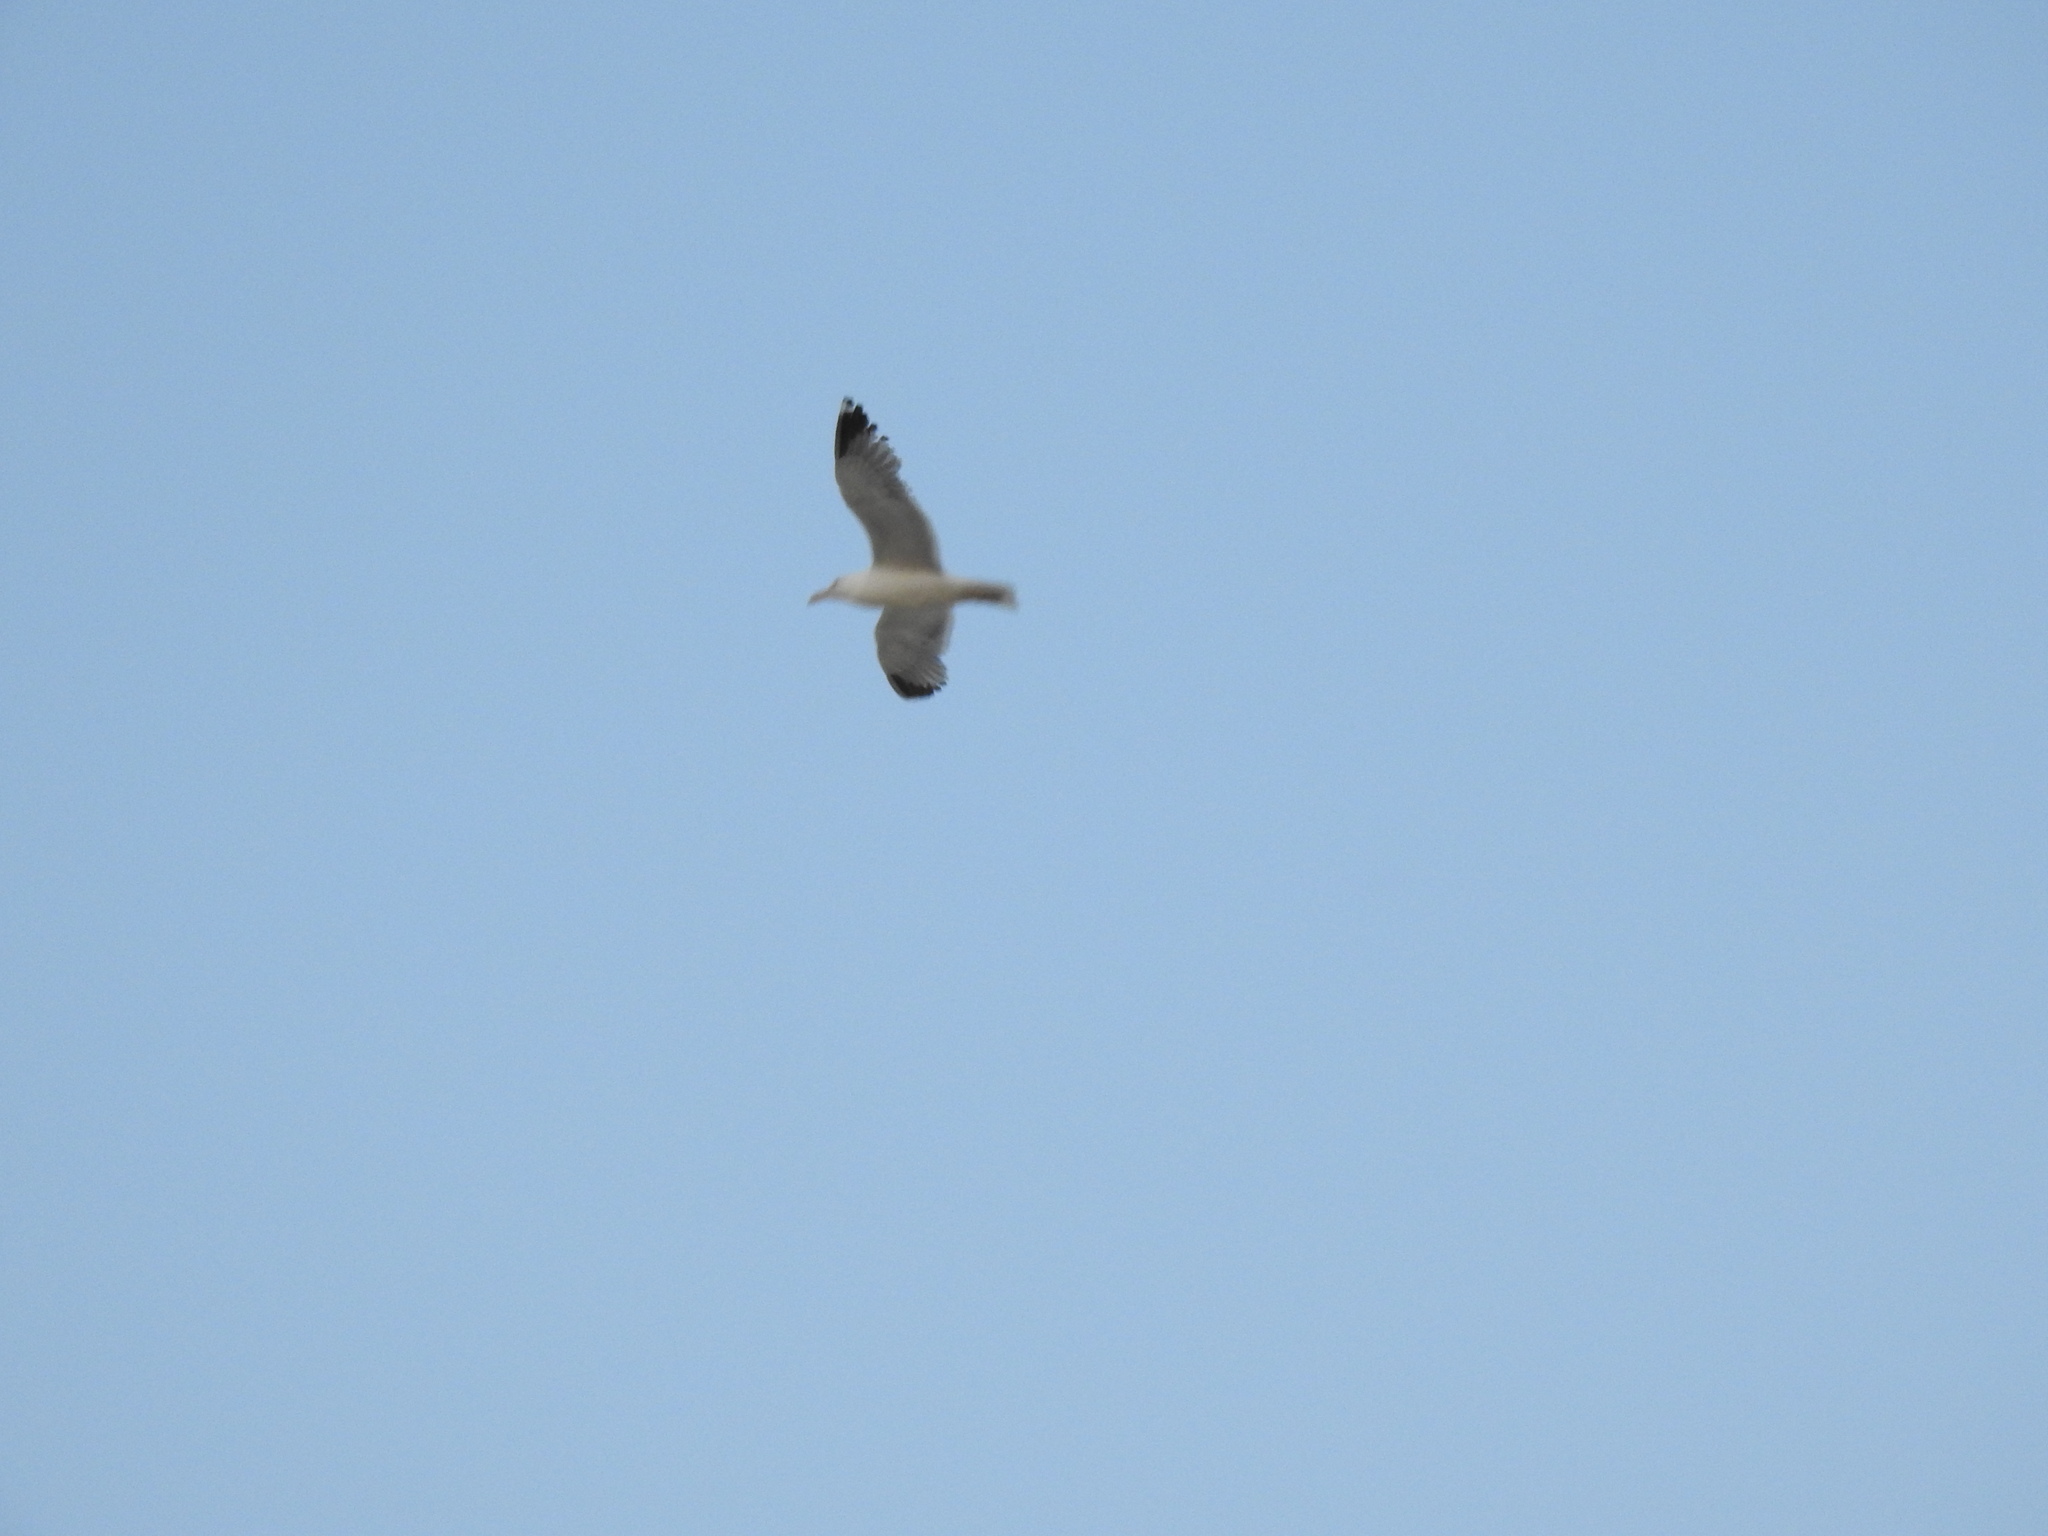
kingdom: Animalia
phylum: Chordata
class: Aves
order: Charadriiformes
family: Laridae
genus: Larus
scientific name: Larus
